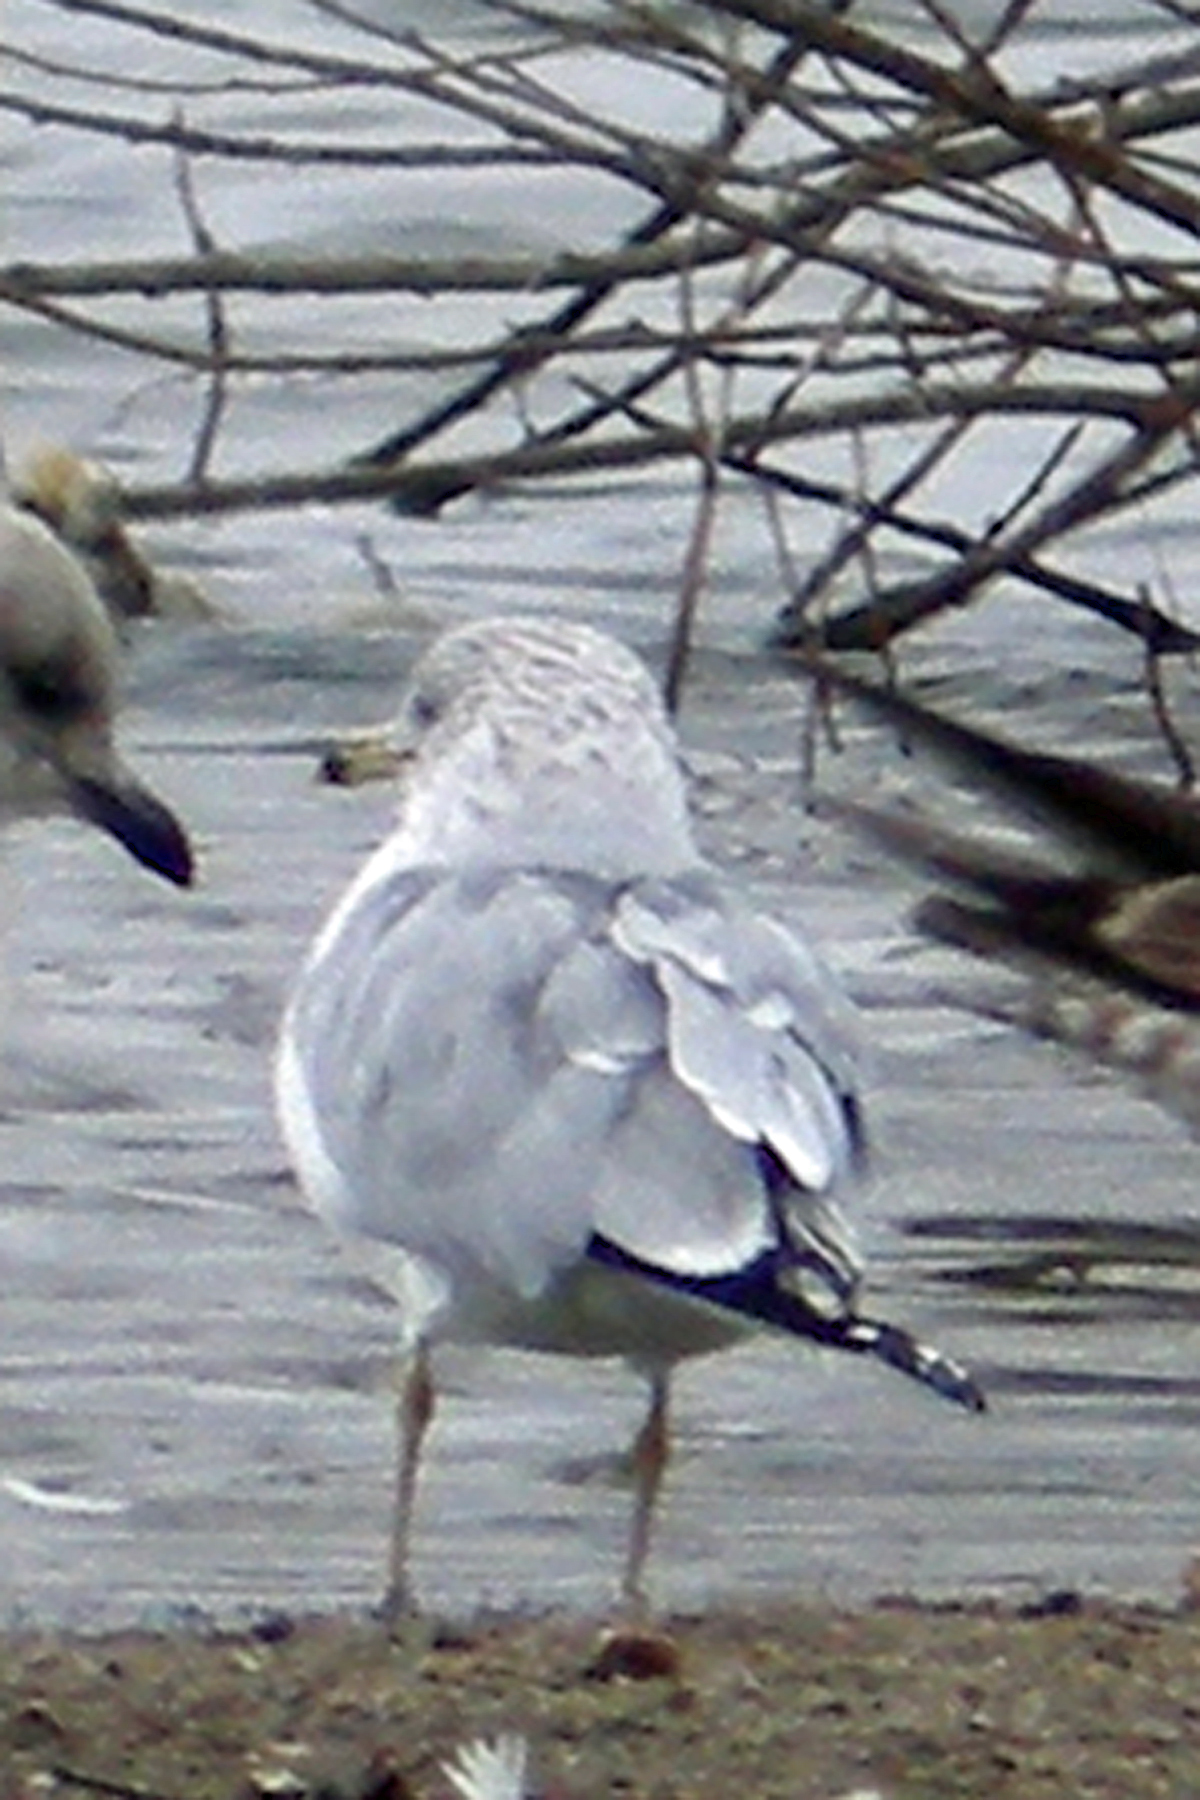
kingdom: Animalia
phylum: Chordata
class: Aves
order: Charadriiformes
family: Laridae
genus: Larus
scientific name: Larus delawarensis
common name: Ring-billed gull
